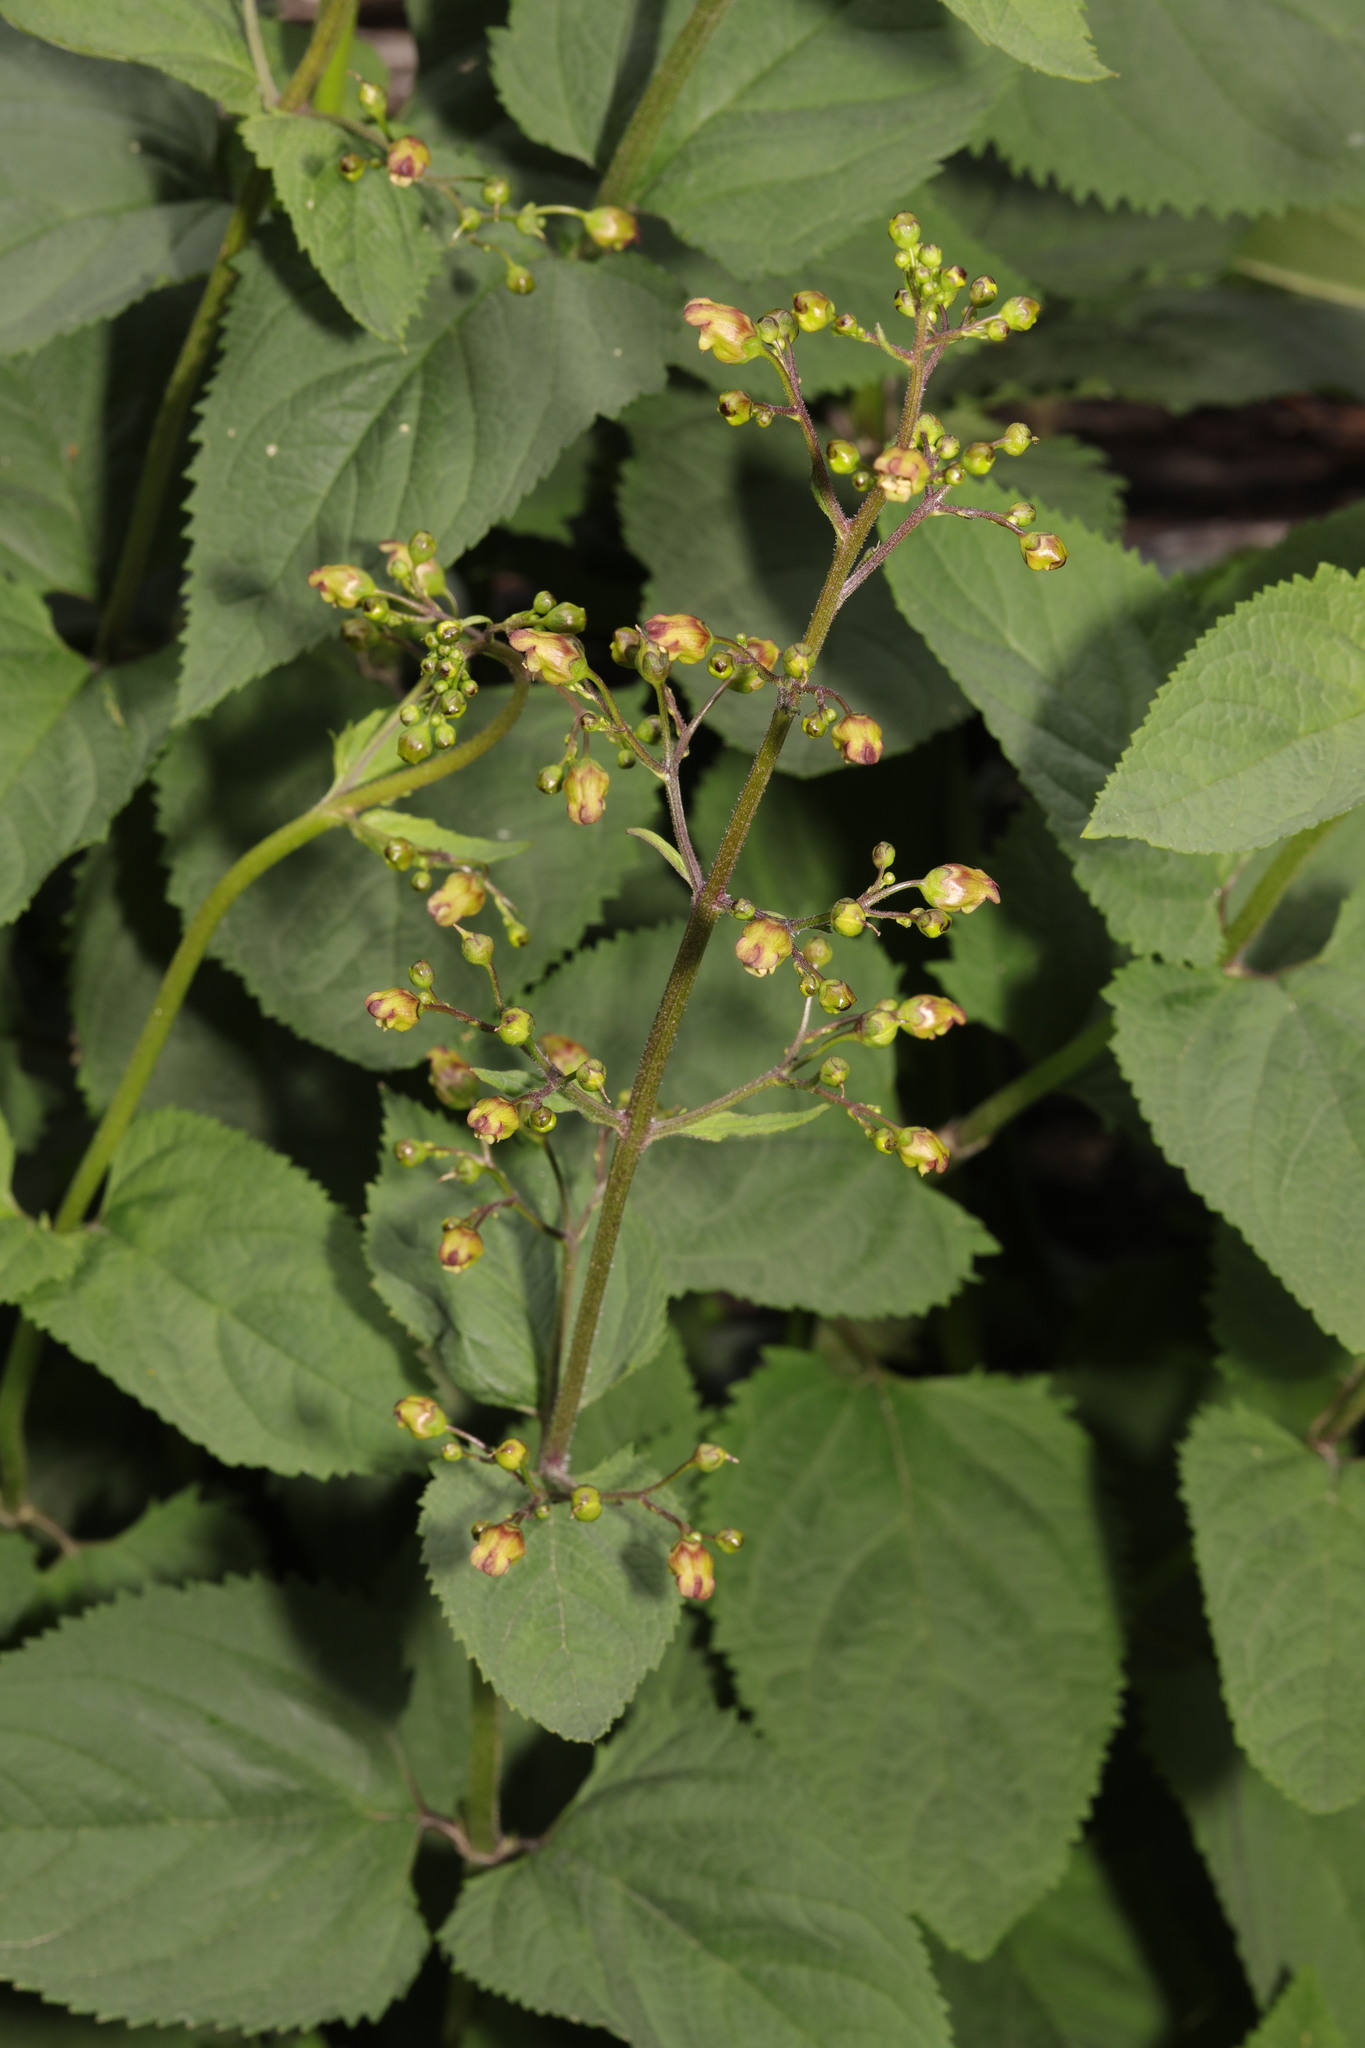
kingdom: Plantae
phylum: Tracheophyta
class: Magnoliopsida
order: Lamiales
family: Scrophulariaceae
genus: Scrophularia
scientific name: Scrophularia nodosa
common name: Common figwort
